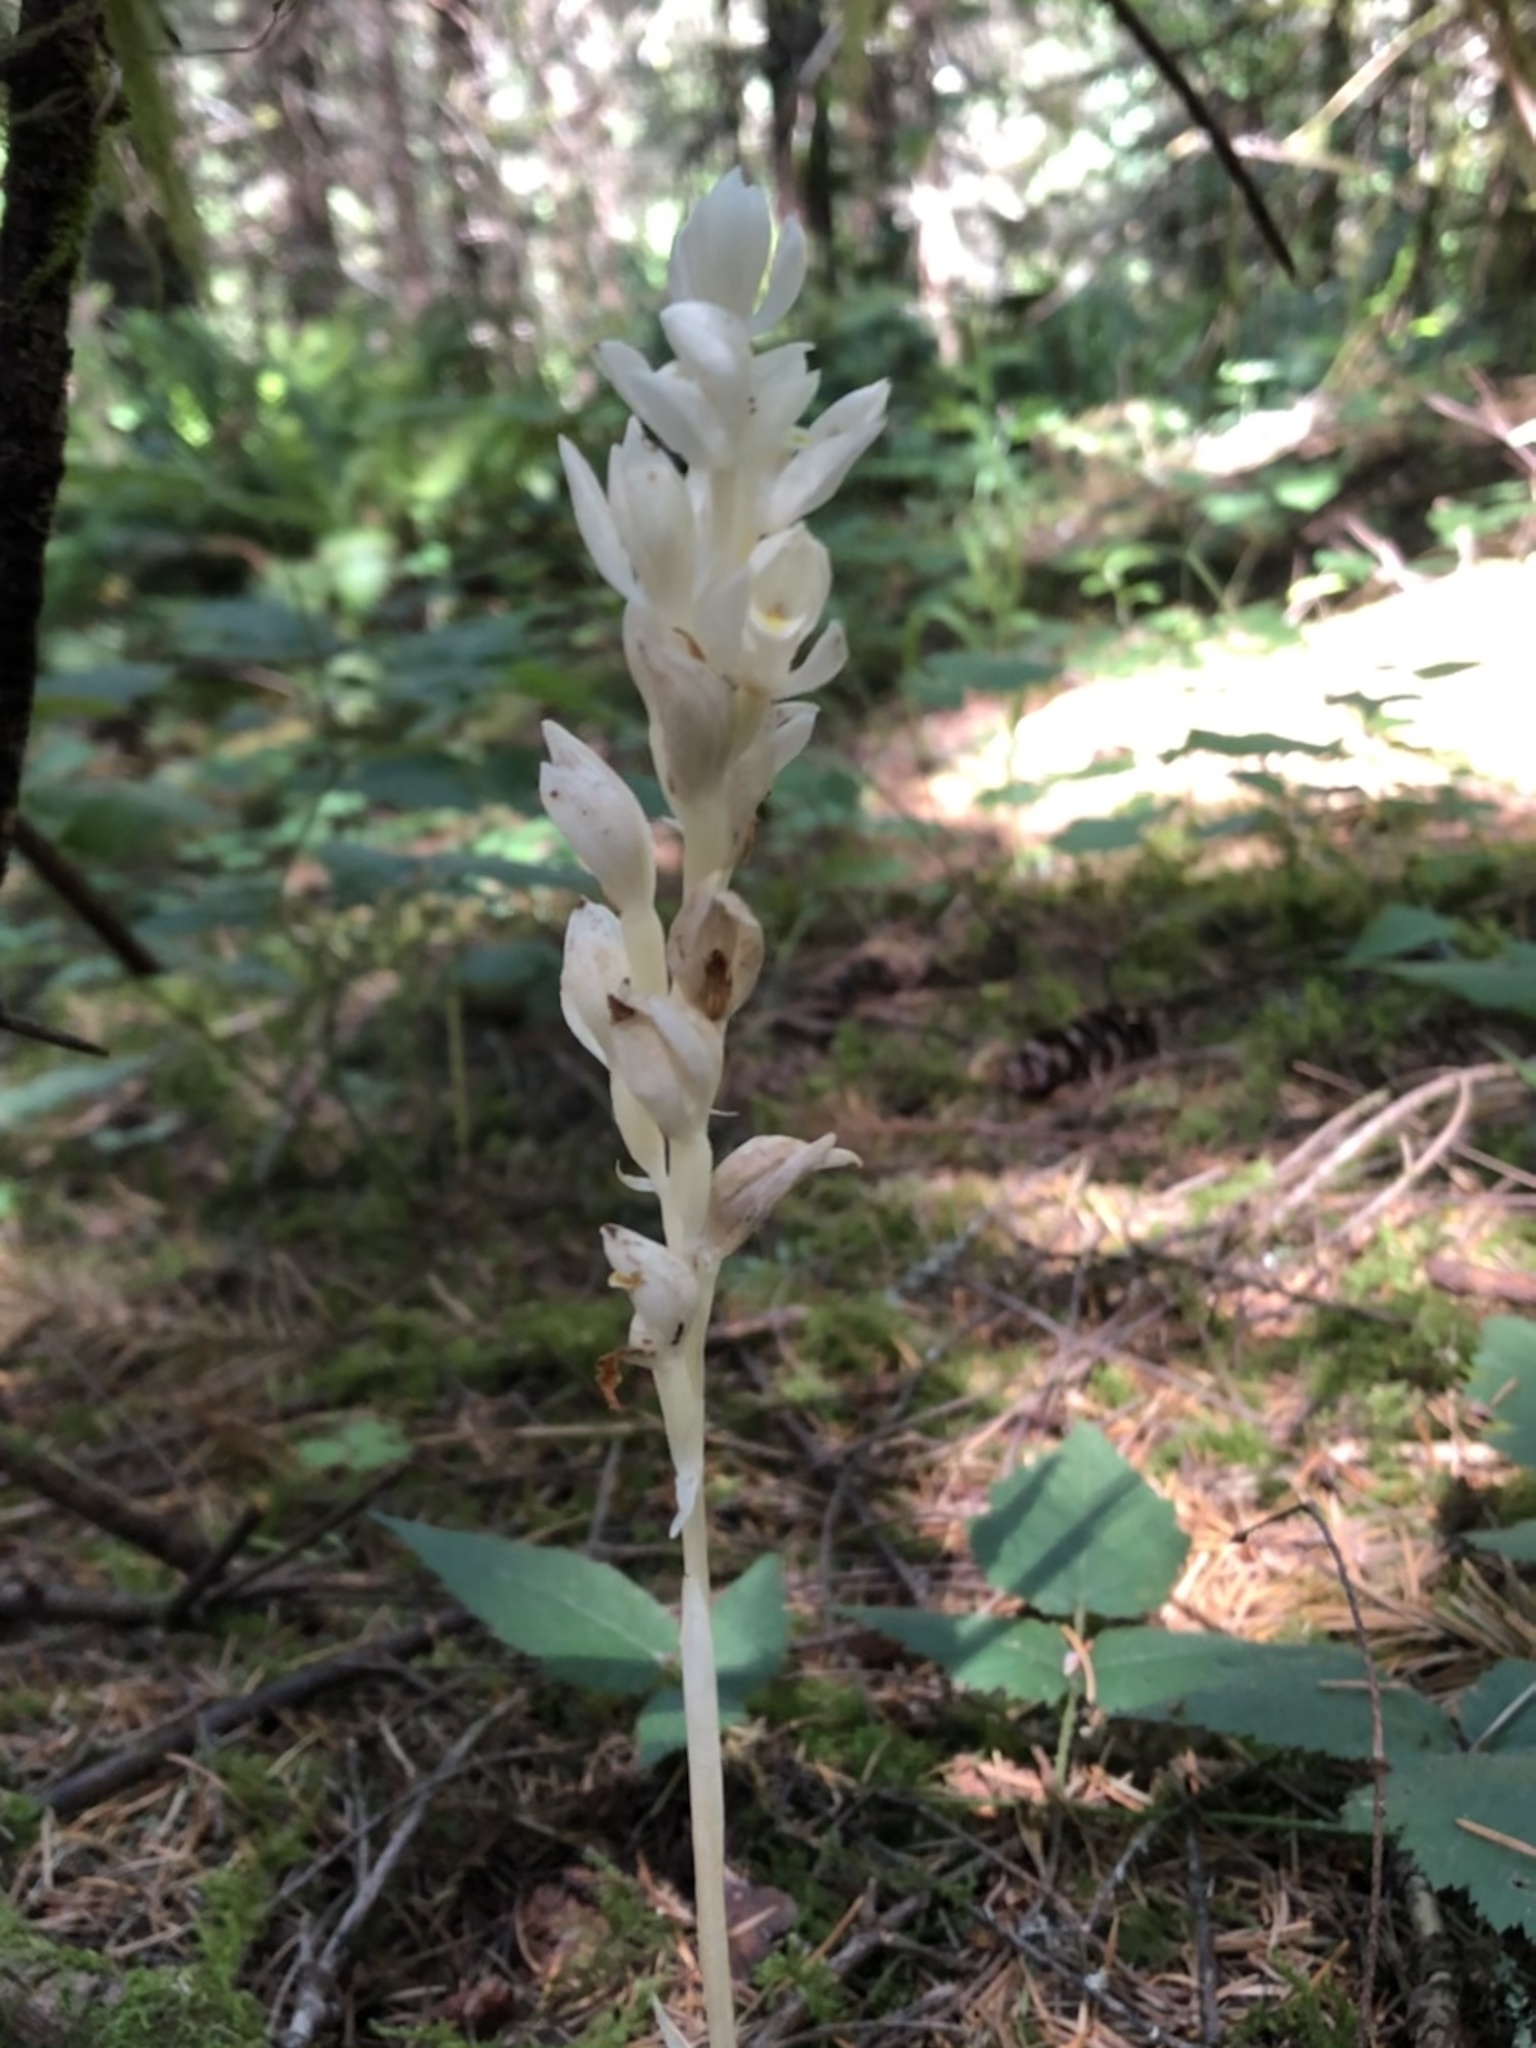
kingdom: Plantae
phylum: Tracheophyta
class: Liliopsida
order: Asparagales
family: Orchidaceae
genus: Cephalanthera
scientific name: Cephalanthera austiniae
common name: Phantom orchid
